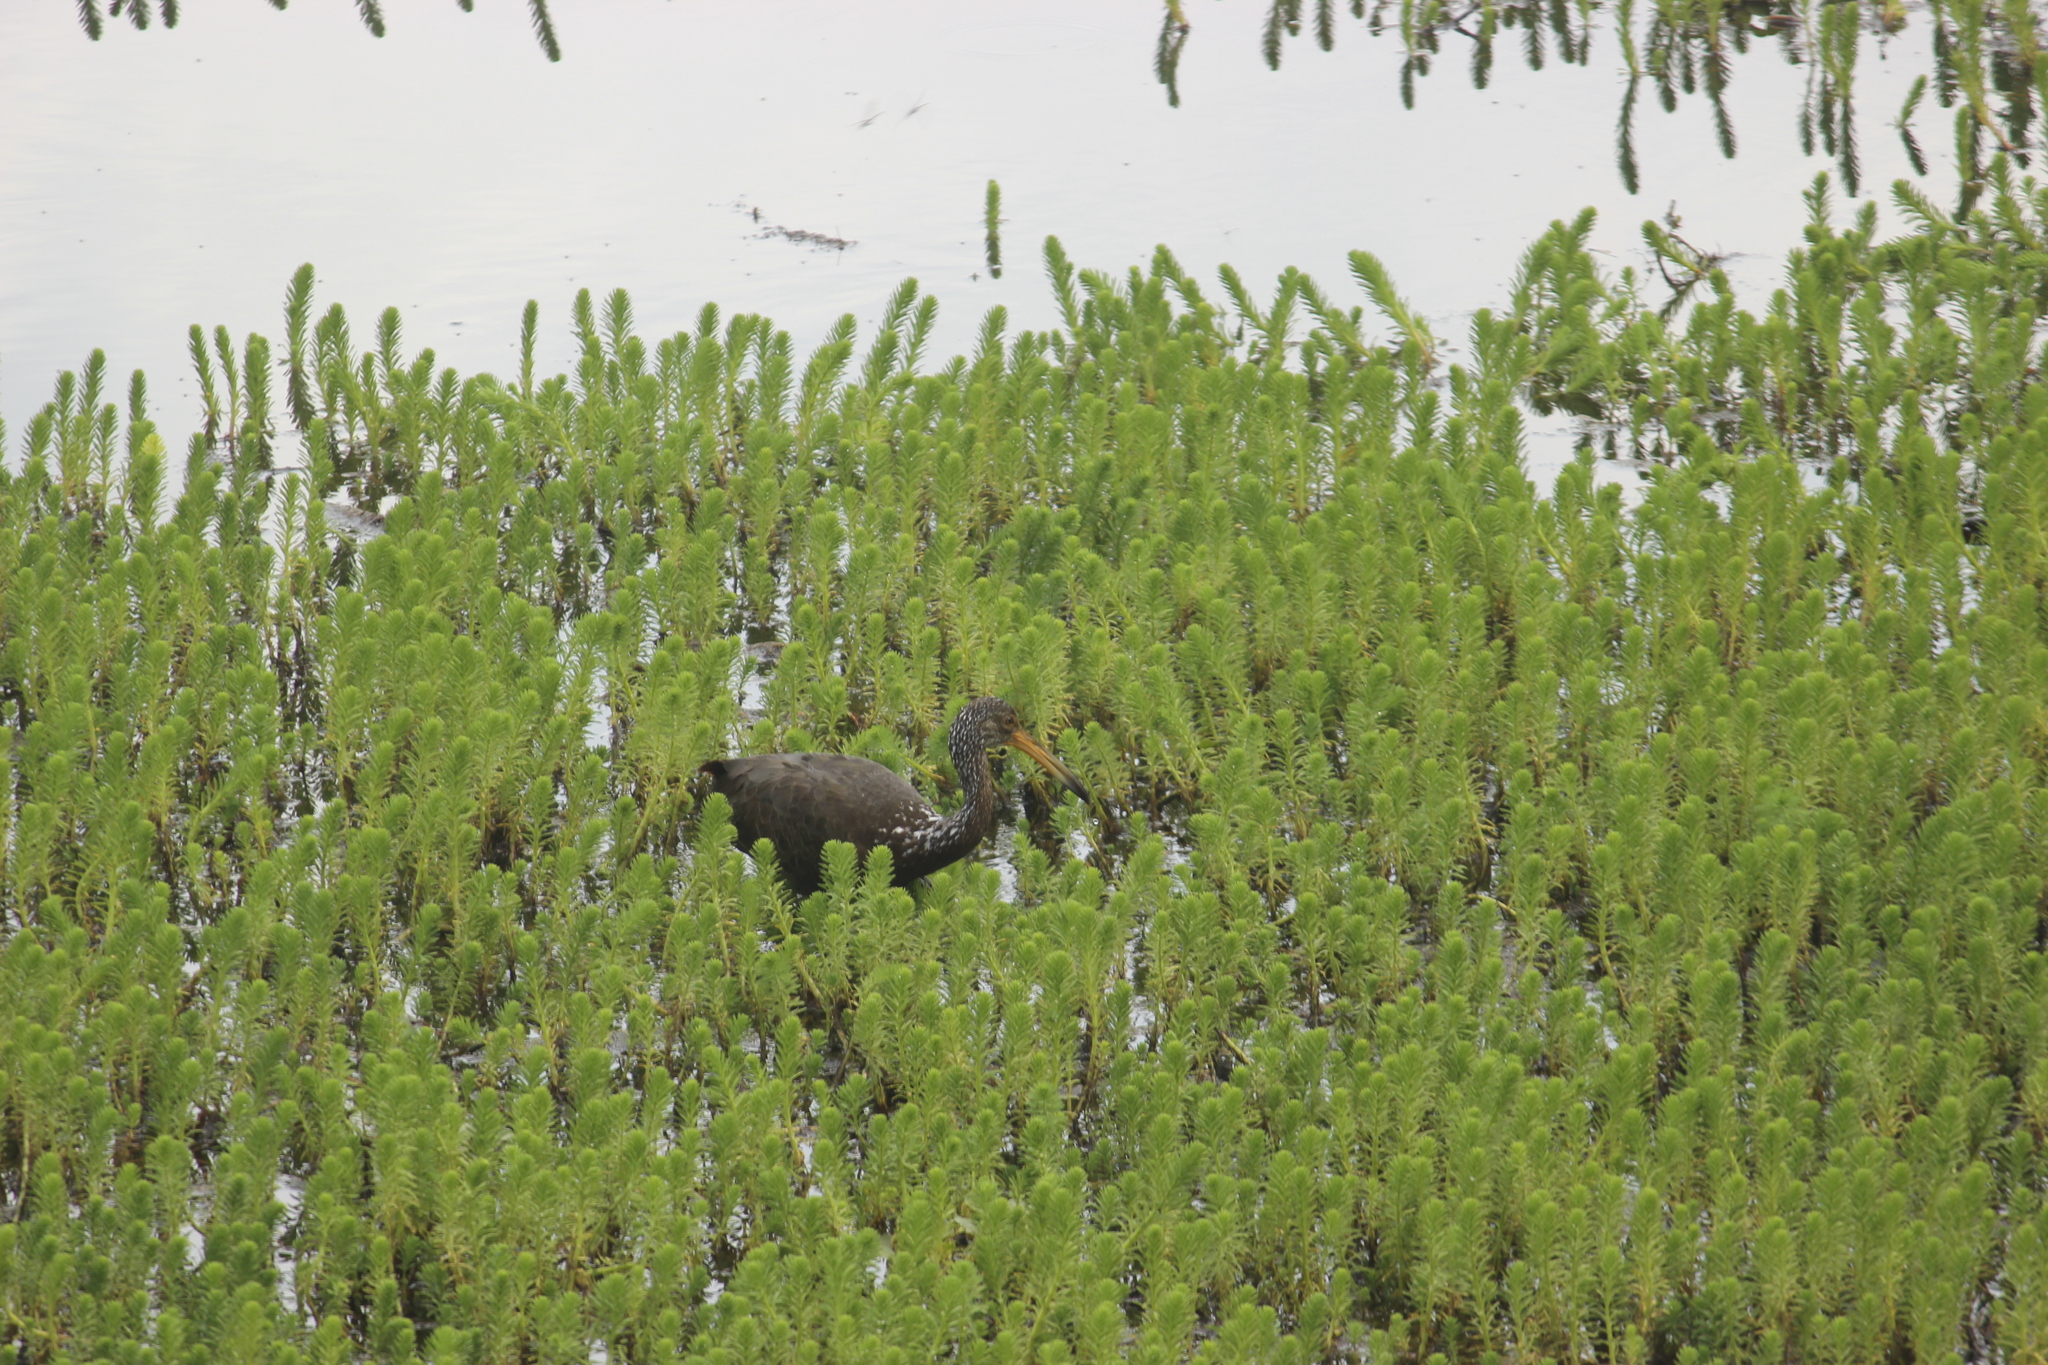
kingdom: Animalia
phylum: Chordata
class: Aves
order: Gruiformes
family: Aramidae
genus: Aramus
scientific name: Aramus guarauna
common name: Limpkin
